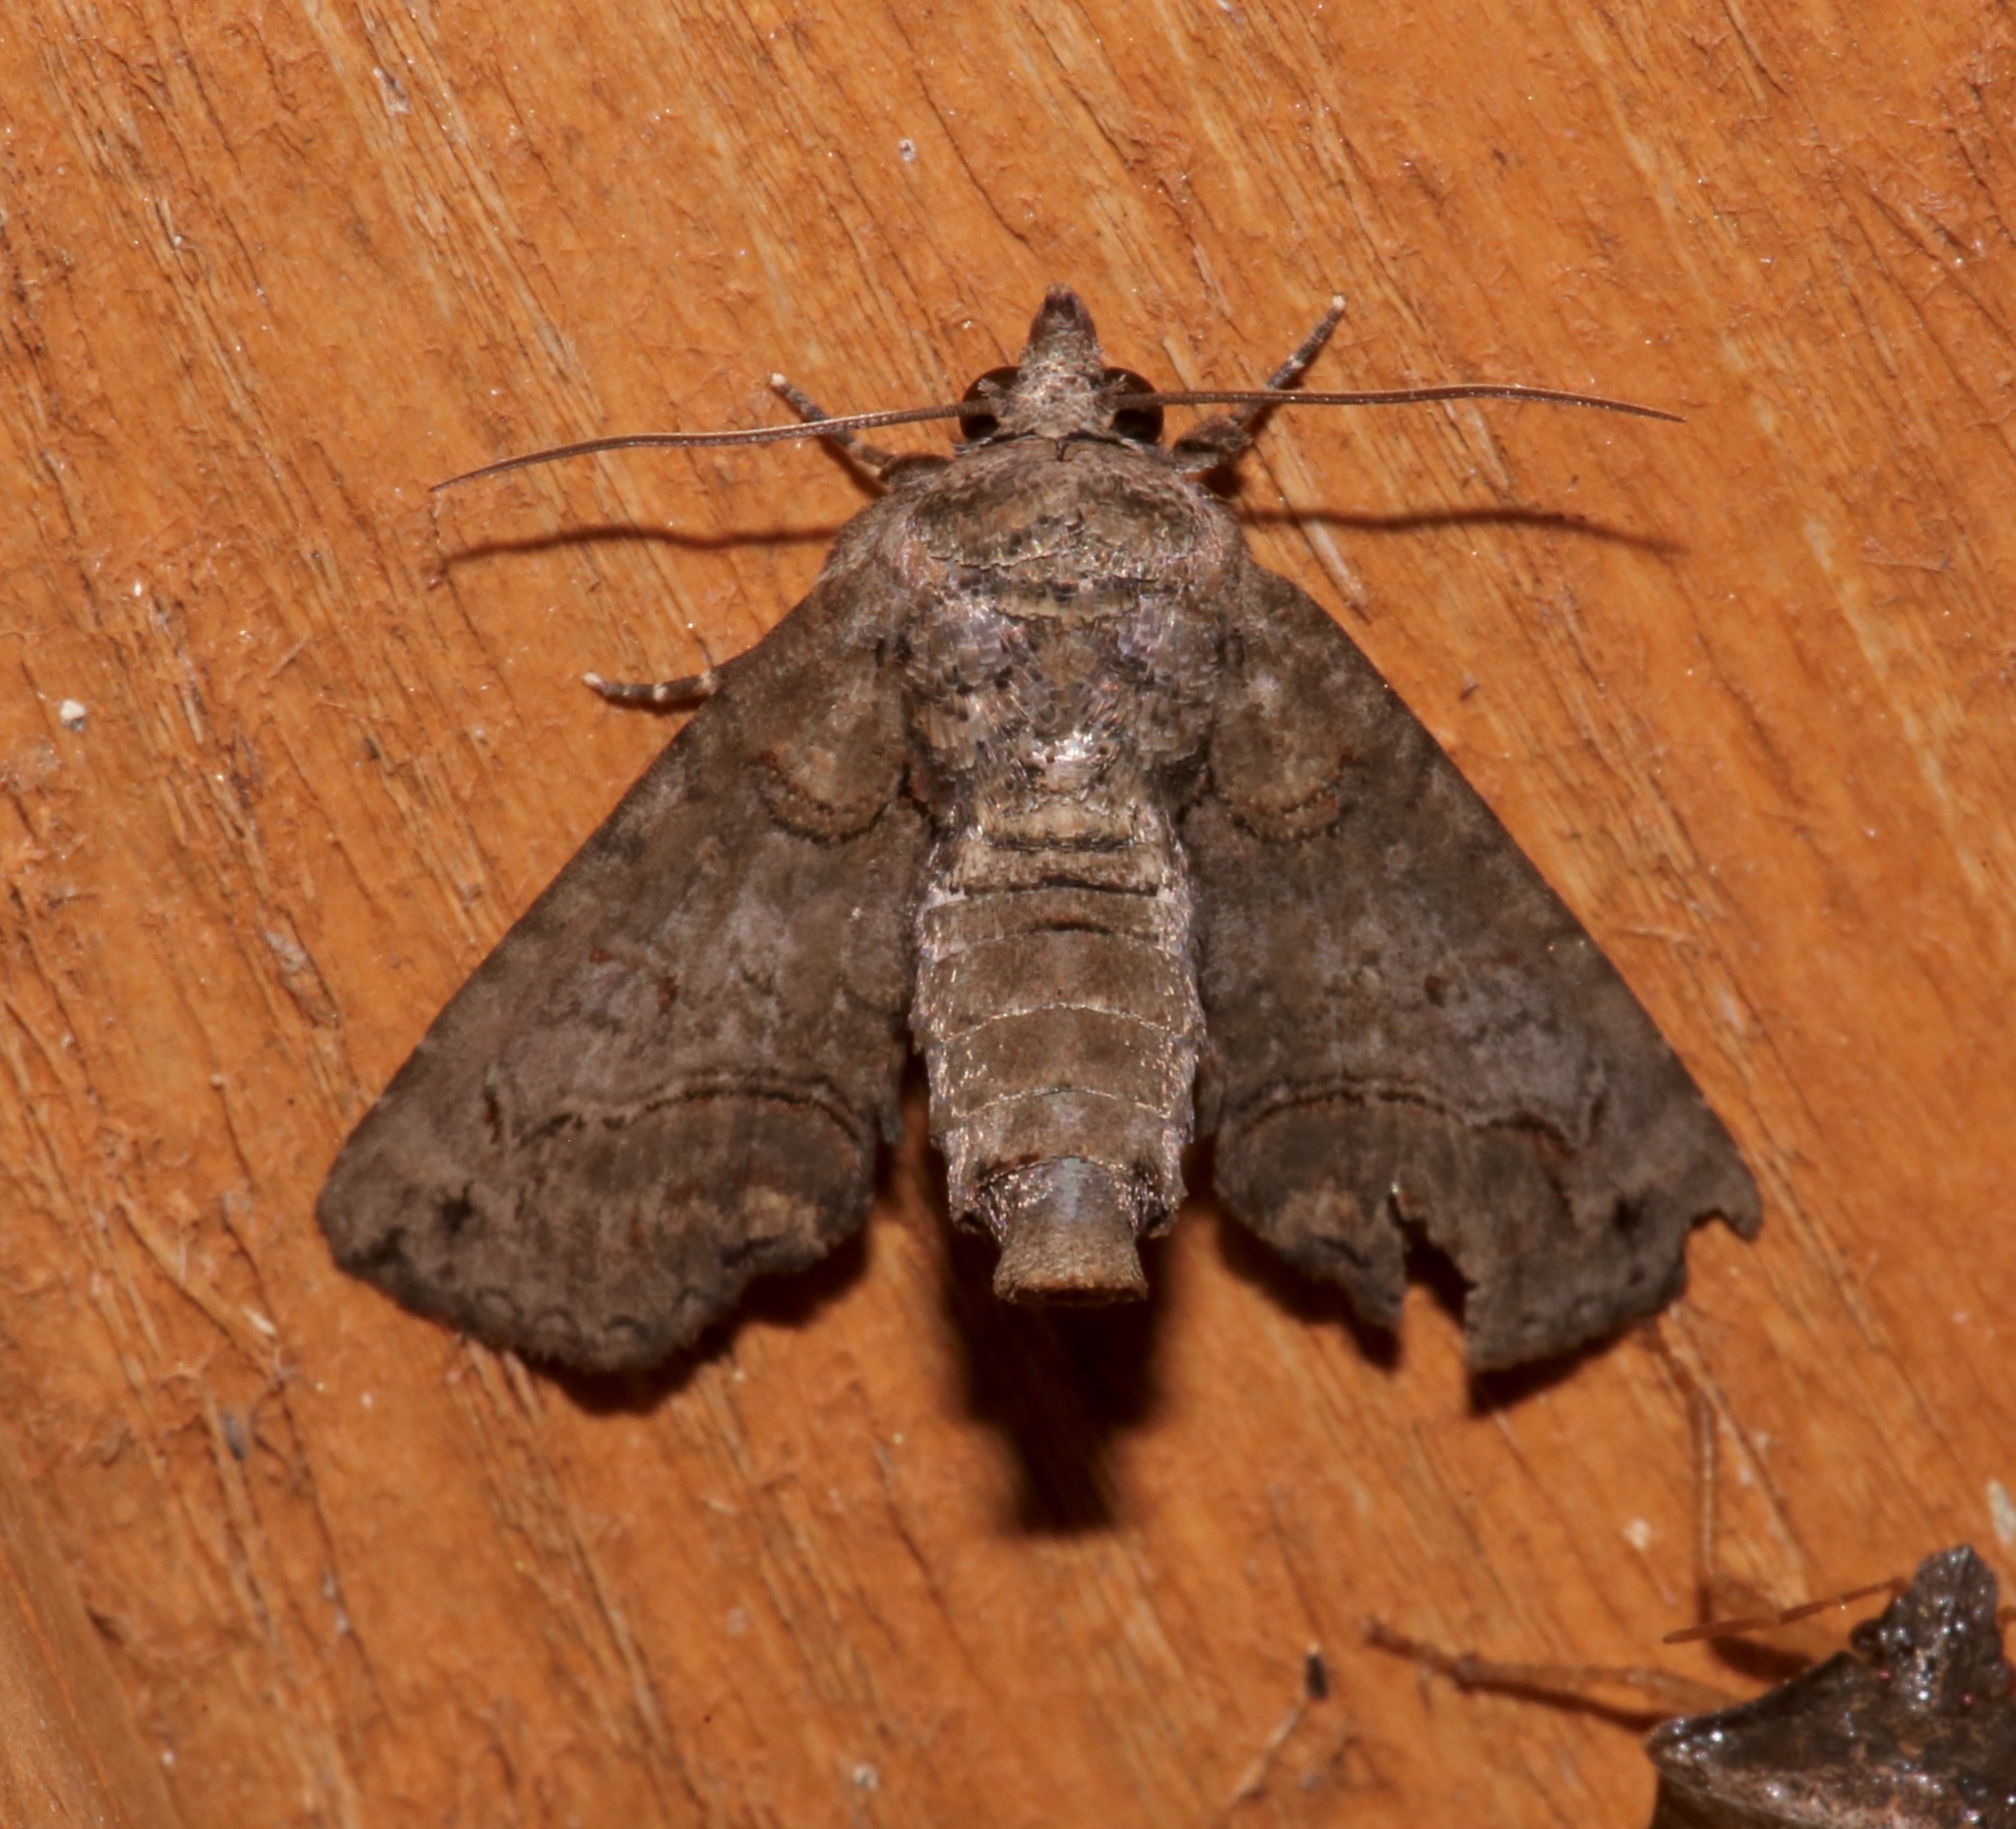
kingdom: Animalia
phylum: Arthropoda
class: Insecta
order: Lepidoptera
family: Euteliidae
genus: Paectes
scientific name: Paectes abrostoloides
